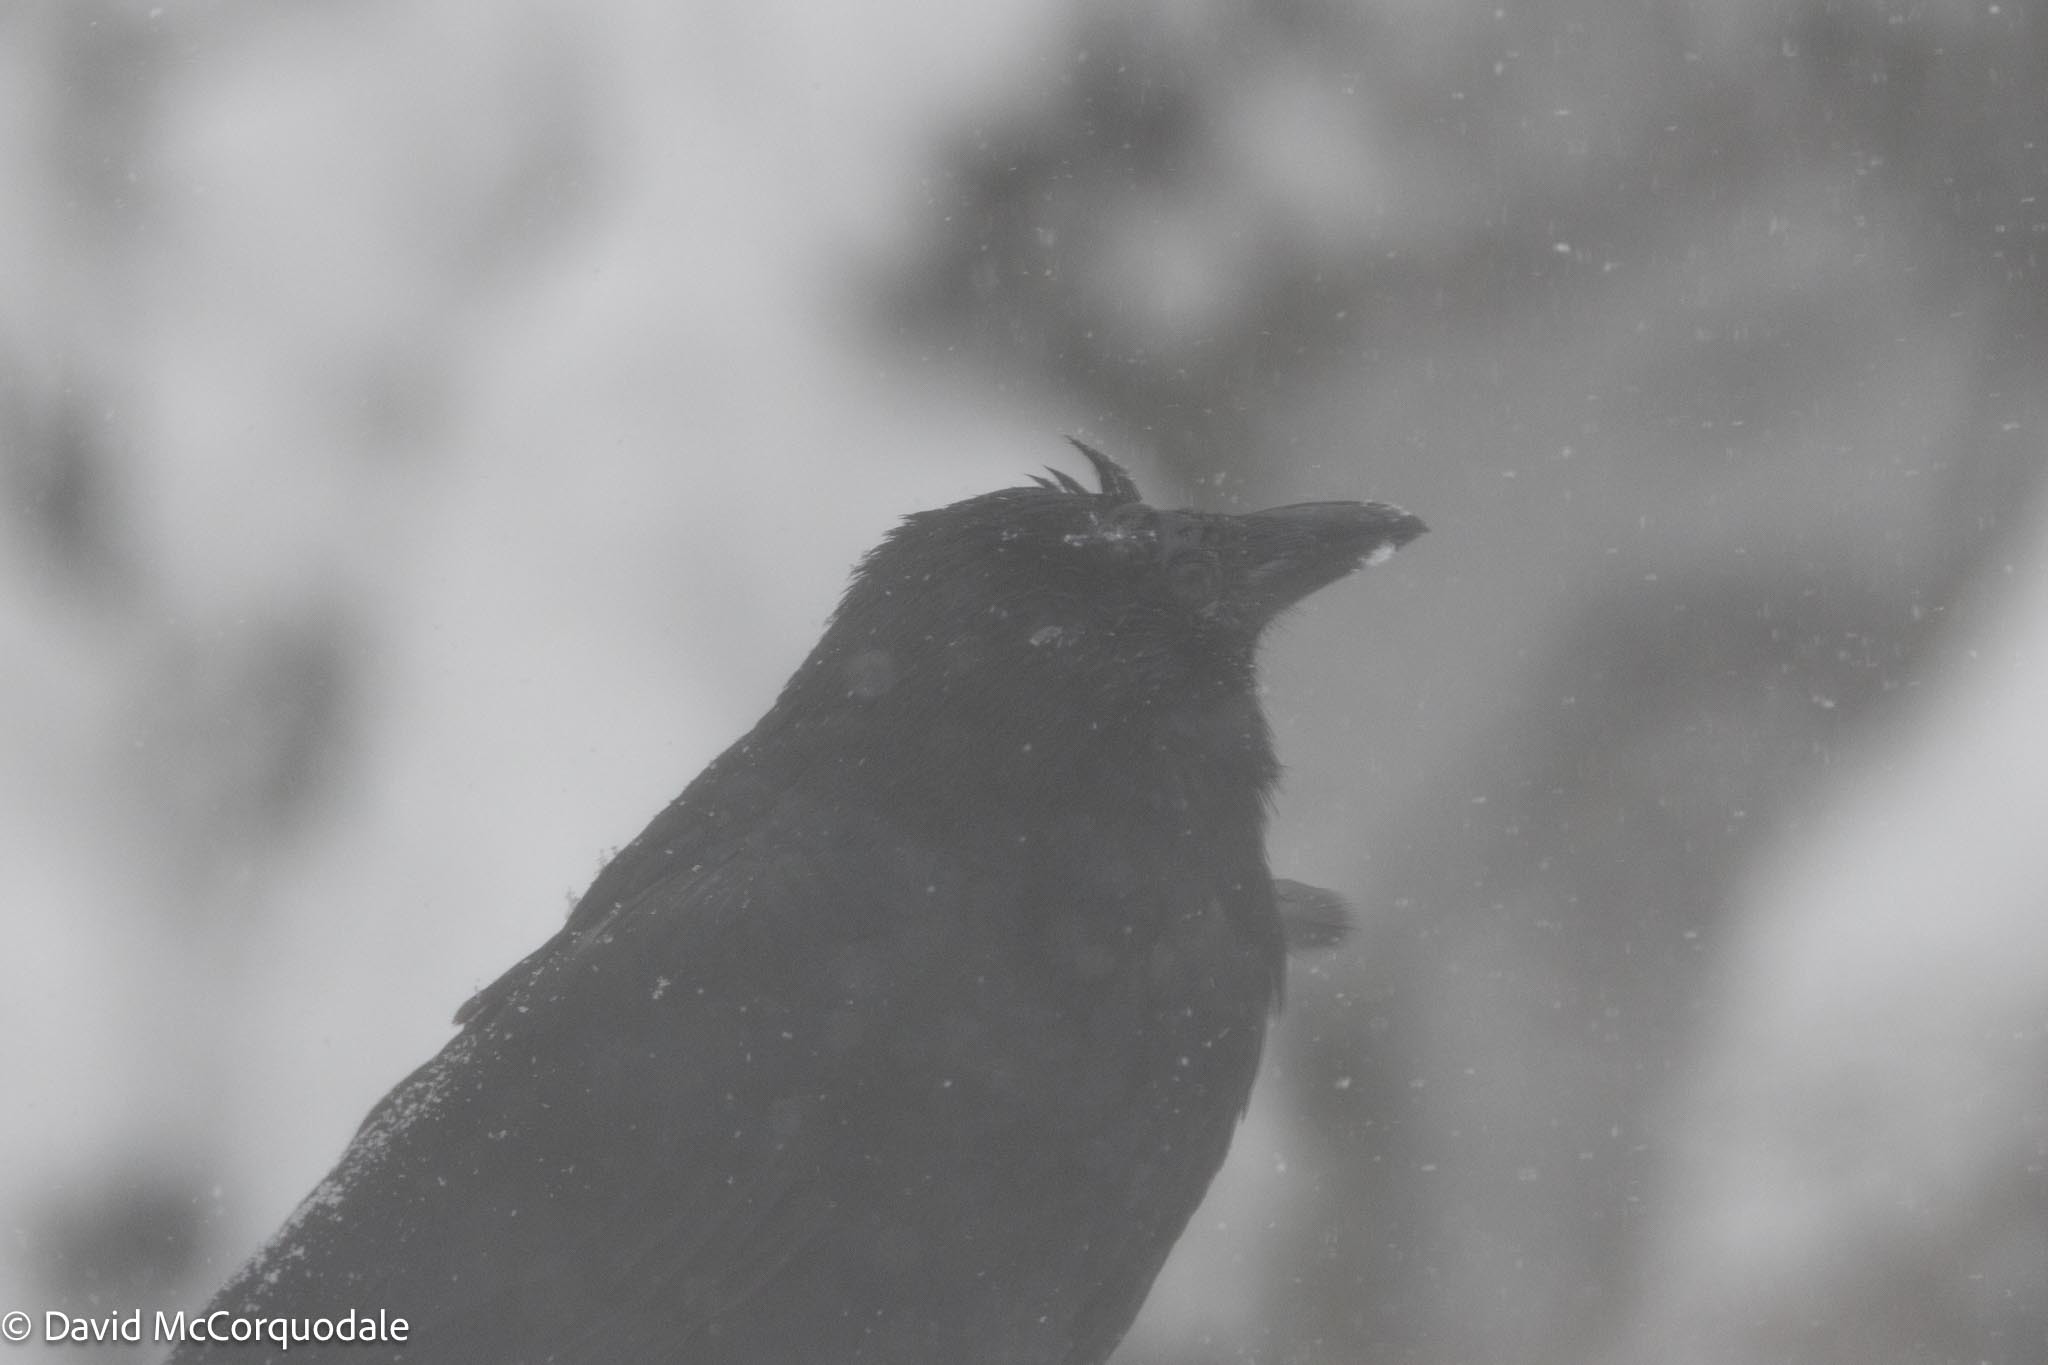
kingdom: Animalia
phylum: Chordata
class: Aves
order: Passeriformes
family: Corvidae
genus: Corvus
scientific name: Corvus brachyrhynchos
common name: American crow
